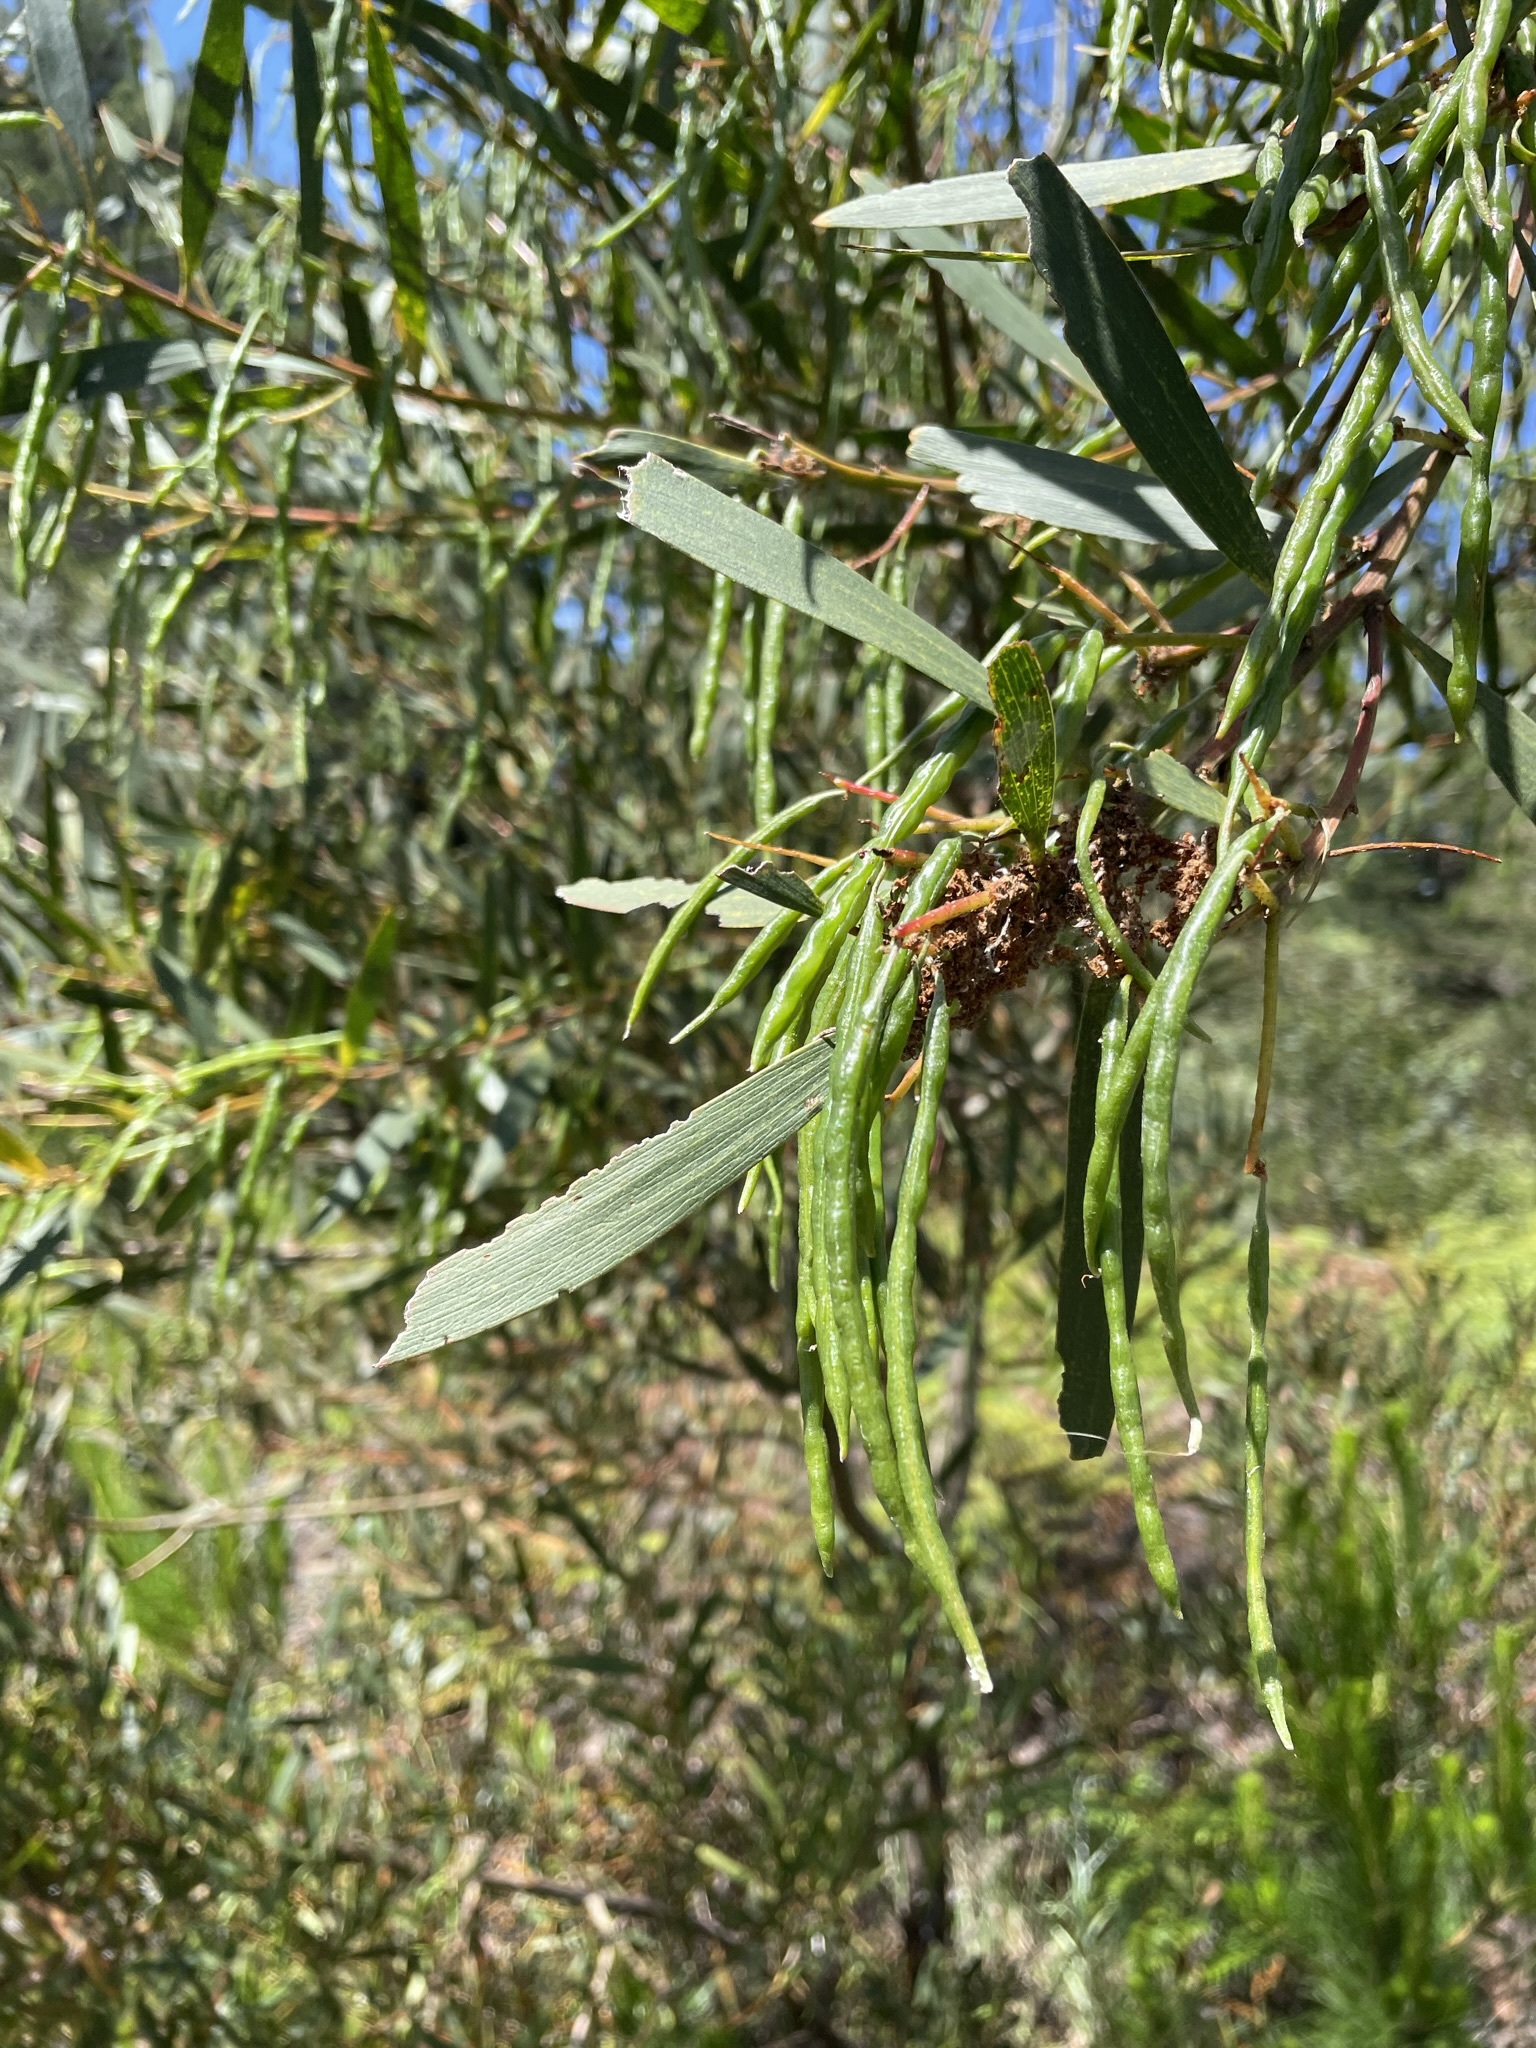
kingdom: Plantae
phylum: Tracheophyta
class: Magnoliopsida
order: Fabales
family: Fabaceae
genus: Acacia
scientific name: Acacia longifolia
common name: Sydney golden wattle
